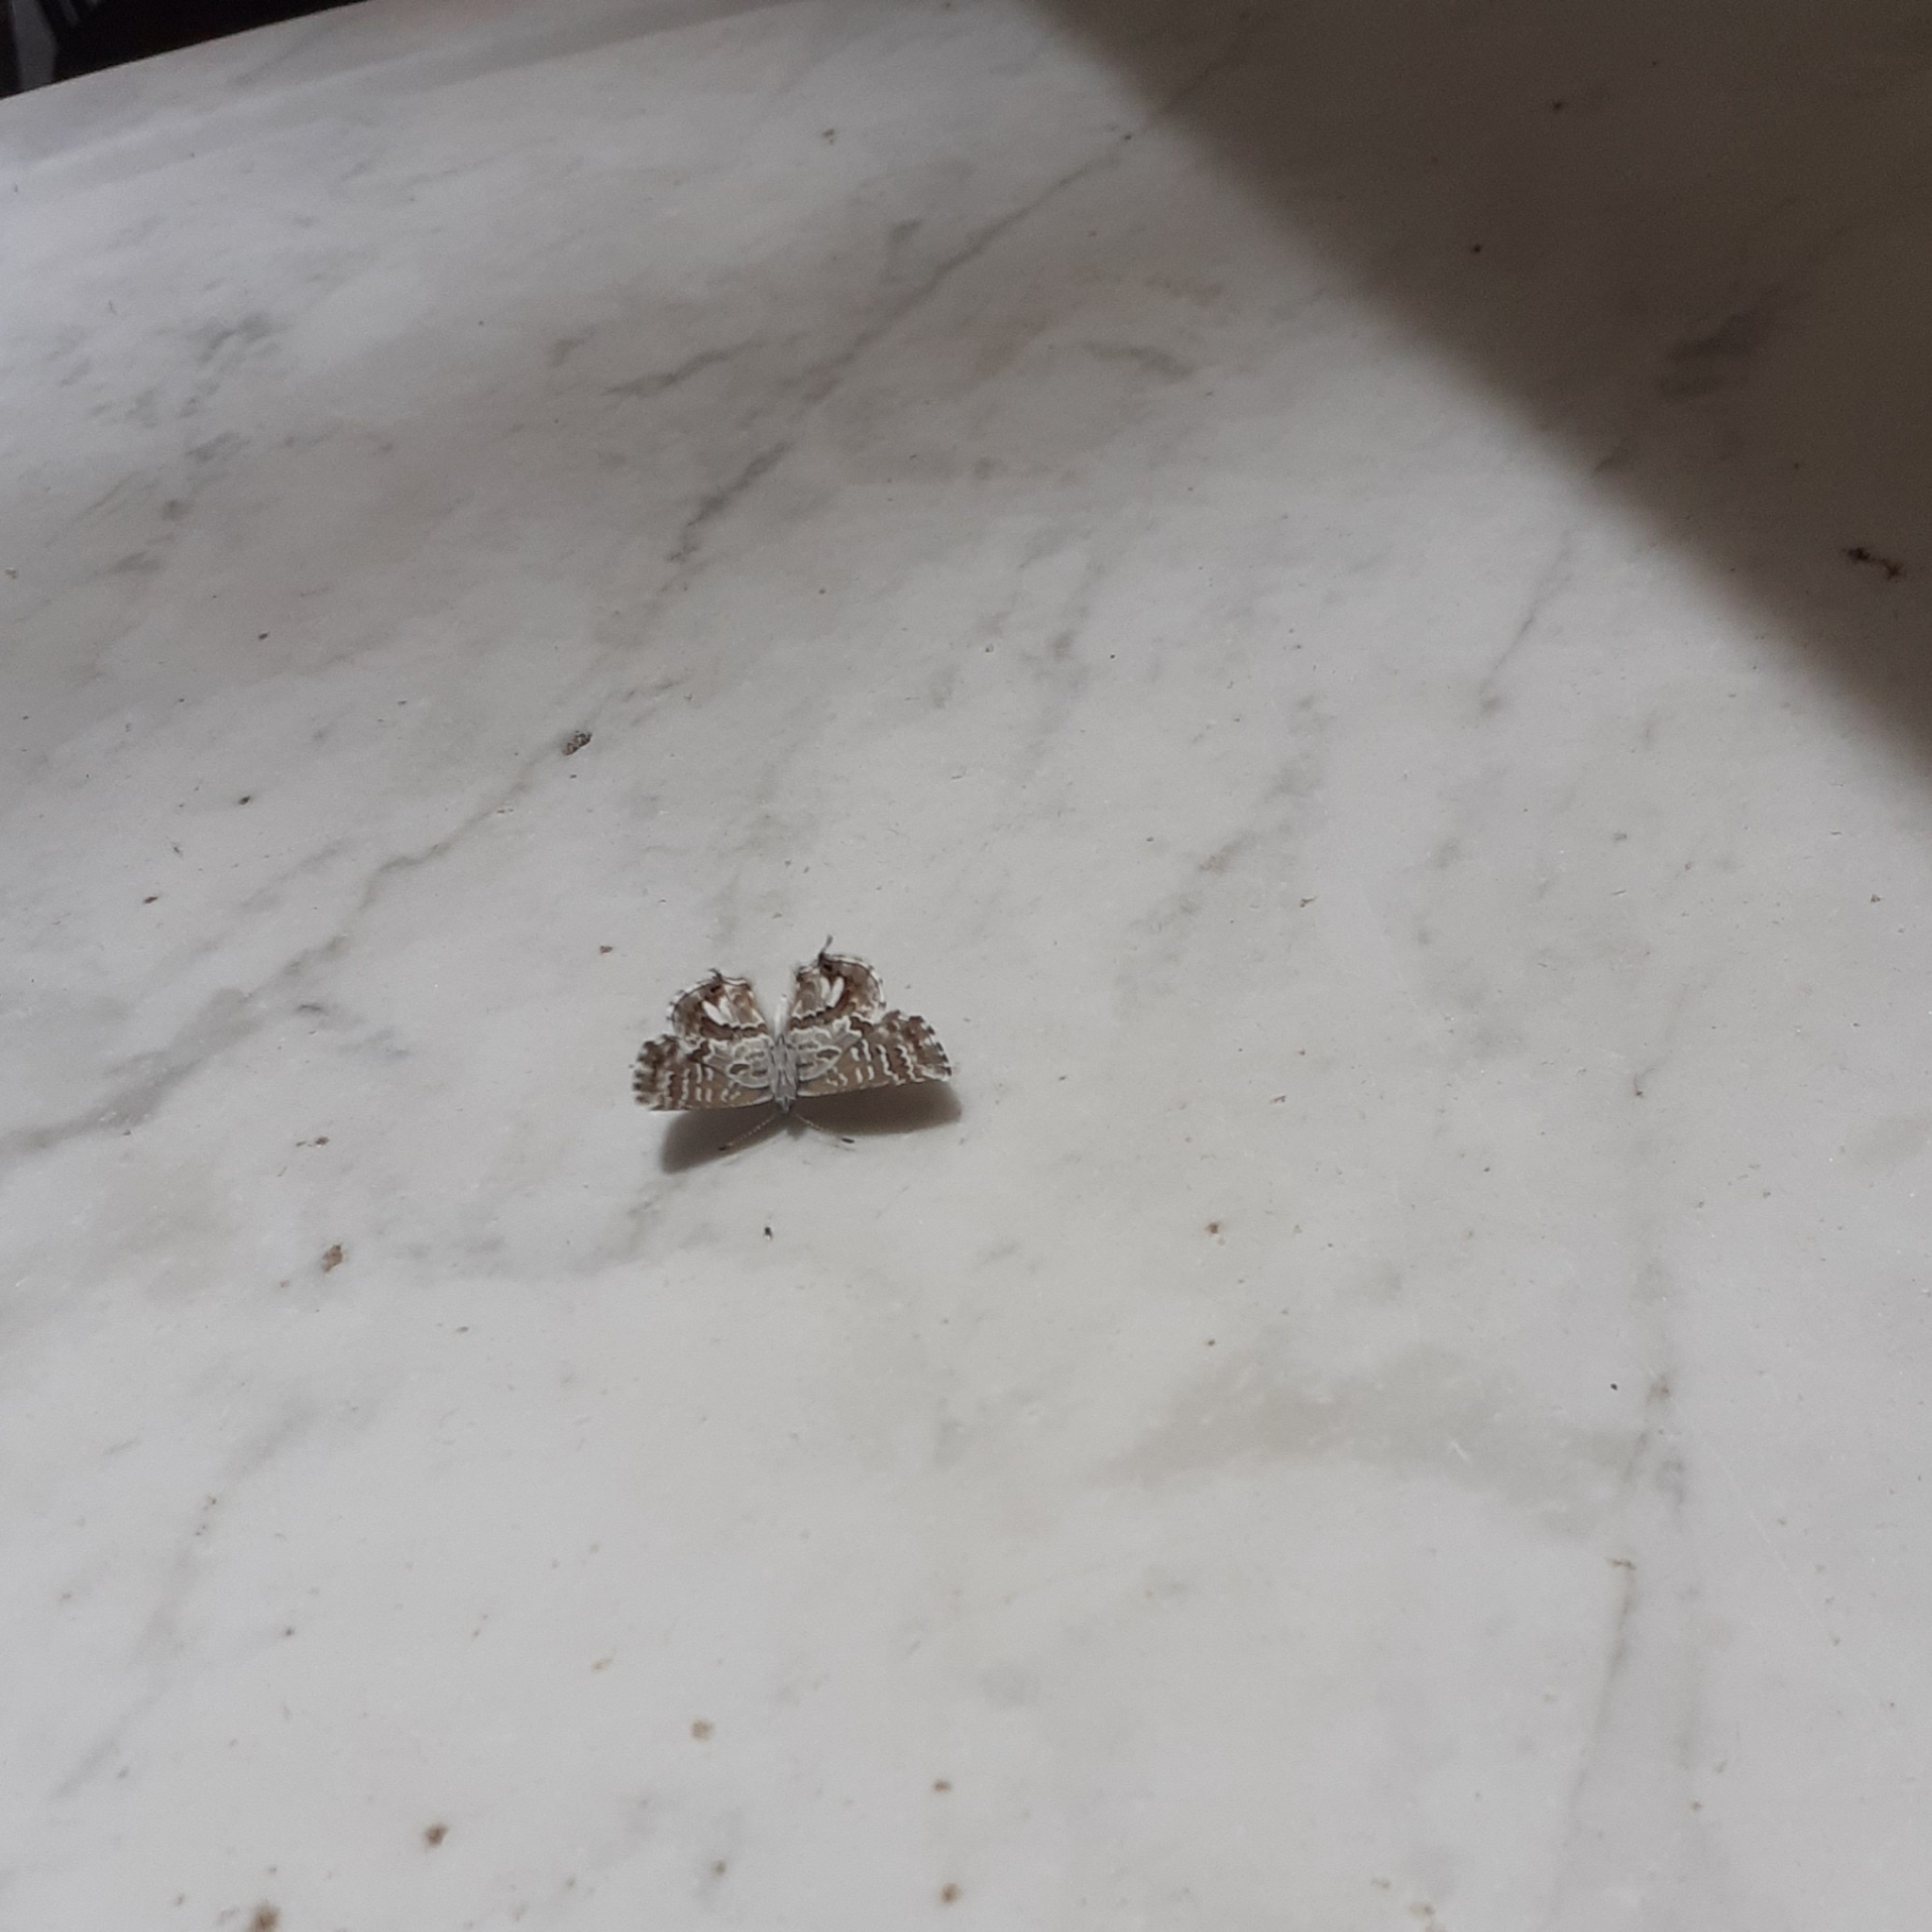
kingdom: Animalia
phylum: Arthropoda
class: Insecta
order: Lepidoptera
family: Lycaenidae
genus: Cacyreus
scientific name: Cacyreus marshalli
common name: Geranium bronze
